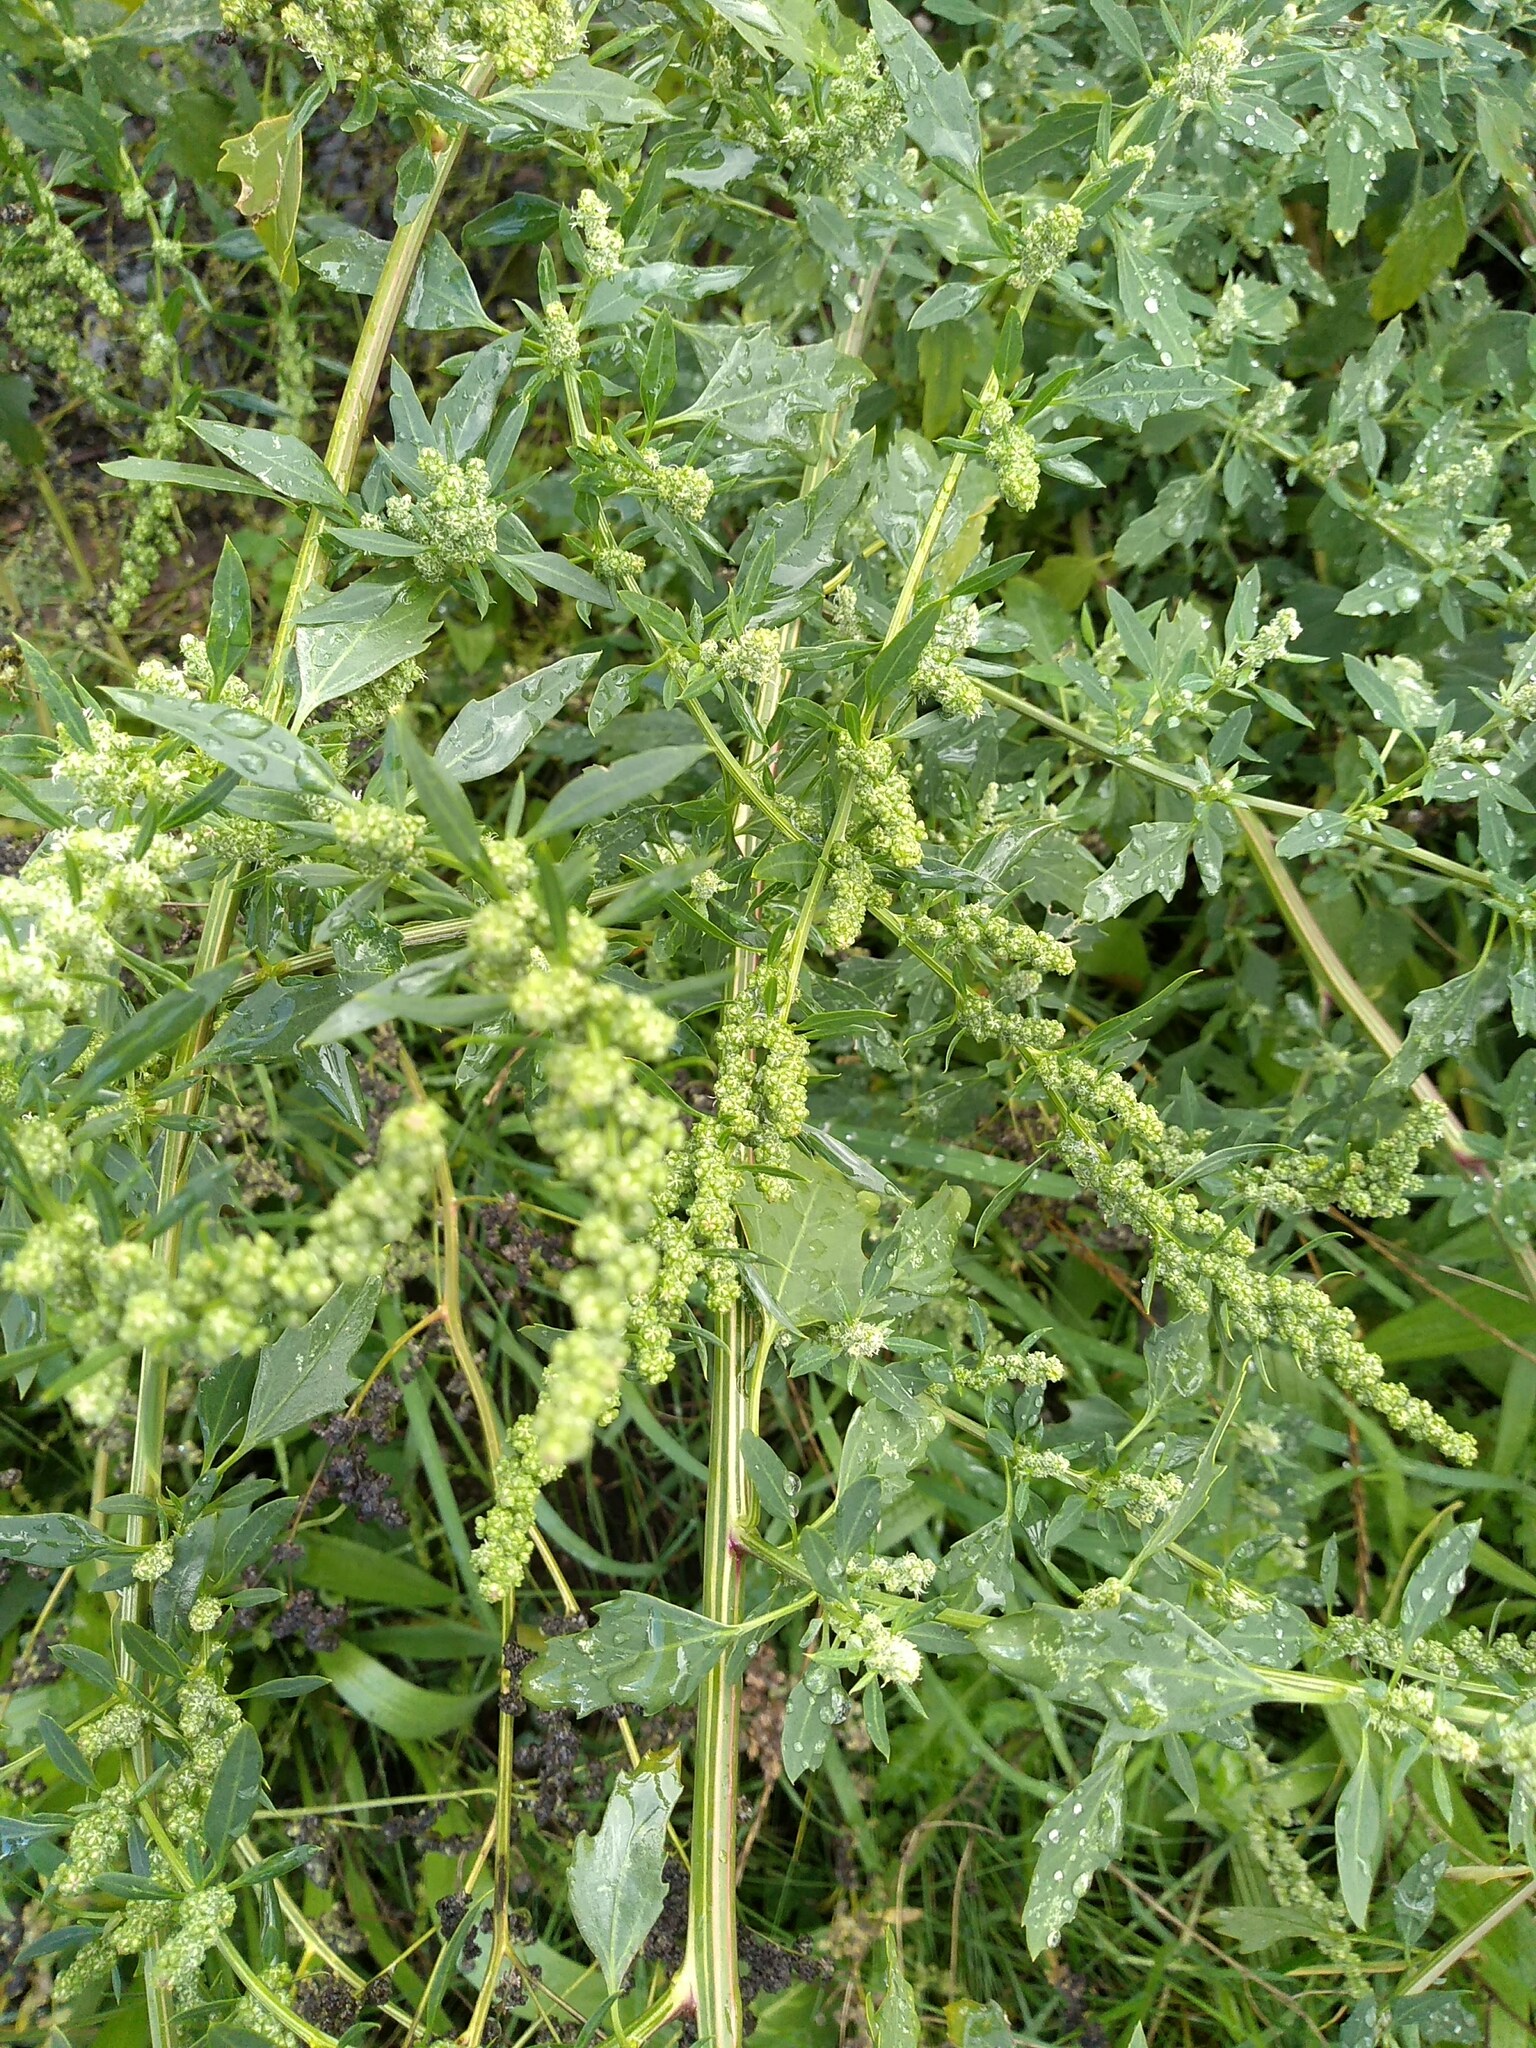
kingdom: Plantae
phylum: Tracheophyta
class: Magnoliopsida
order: Caryophyllales
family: Amaranthaceae
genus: Chenopodium
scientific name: Chenopodium album
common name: Fat-hen
